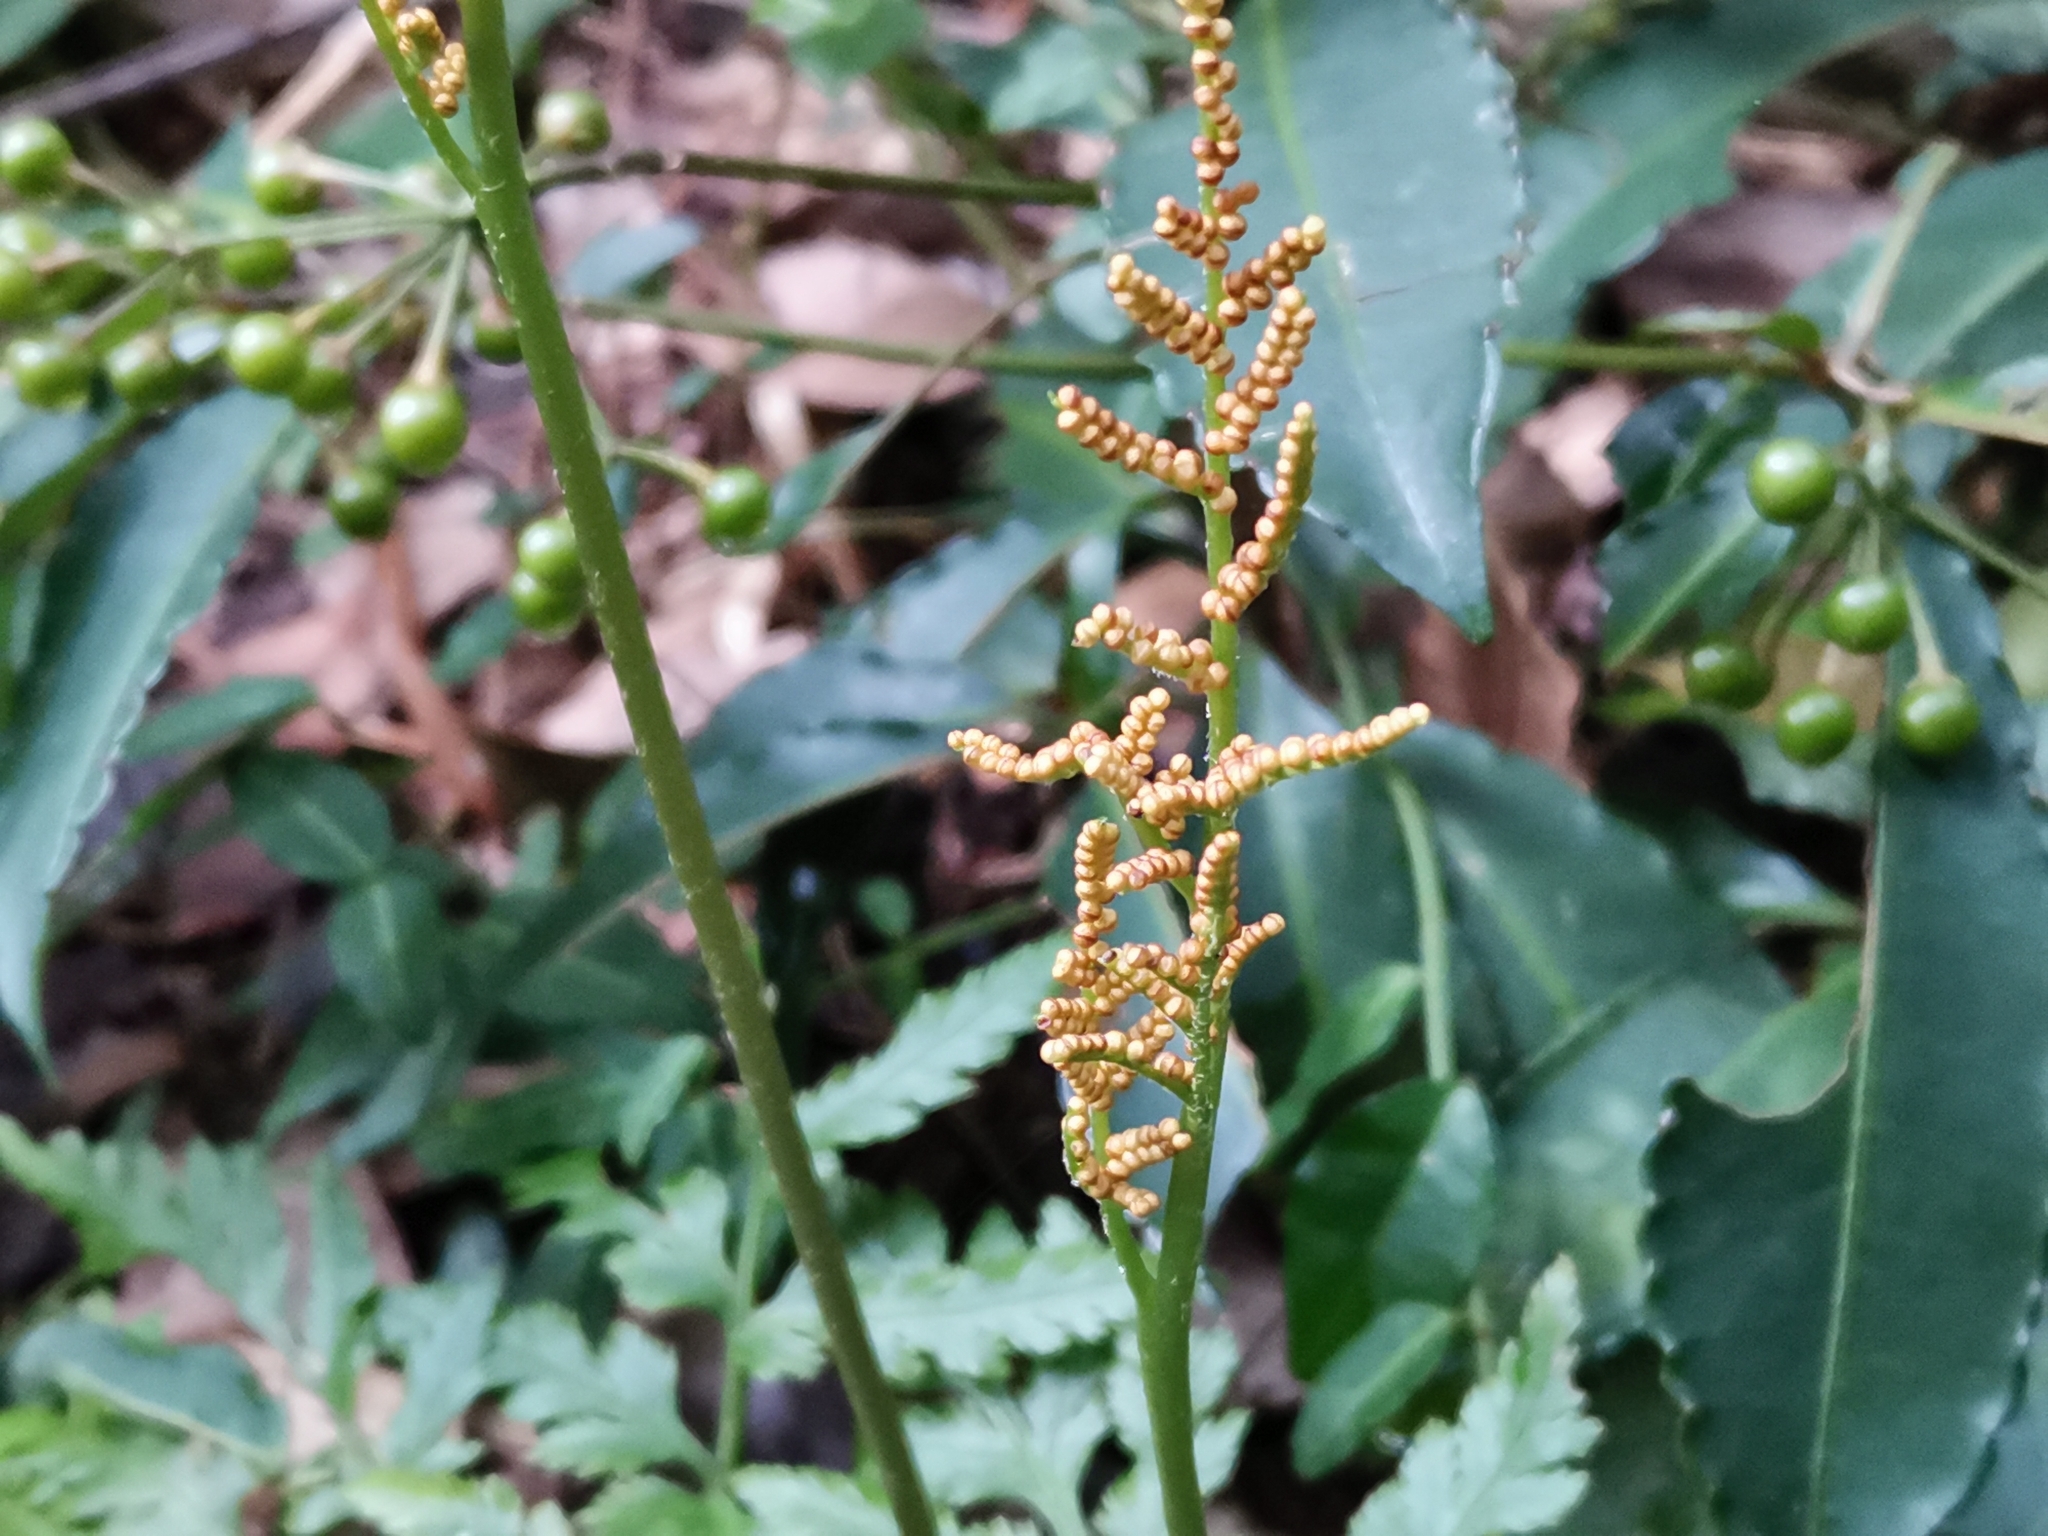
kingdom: Plantae
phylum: Tracheophyta
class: Polypodiopsida
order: Ophioglossales
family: Ophioglossaceae
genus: Sceptridium
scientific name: Sceptridium japonicum
